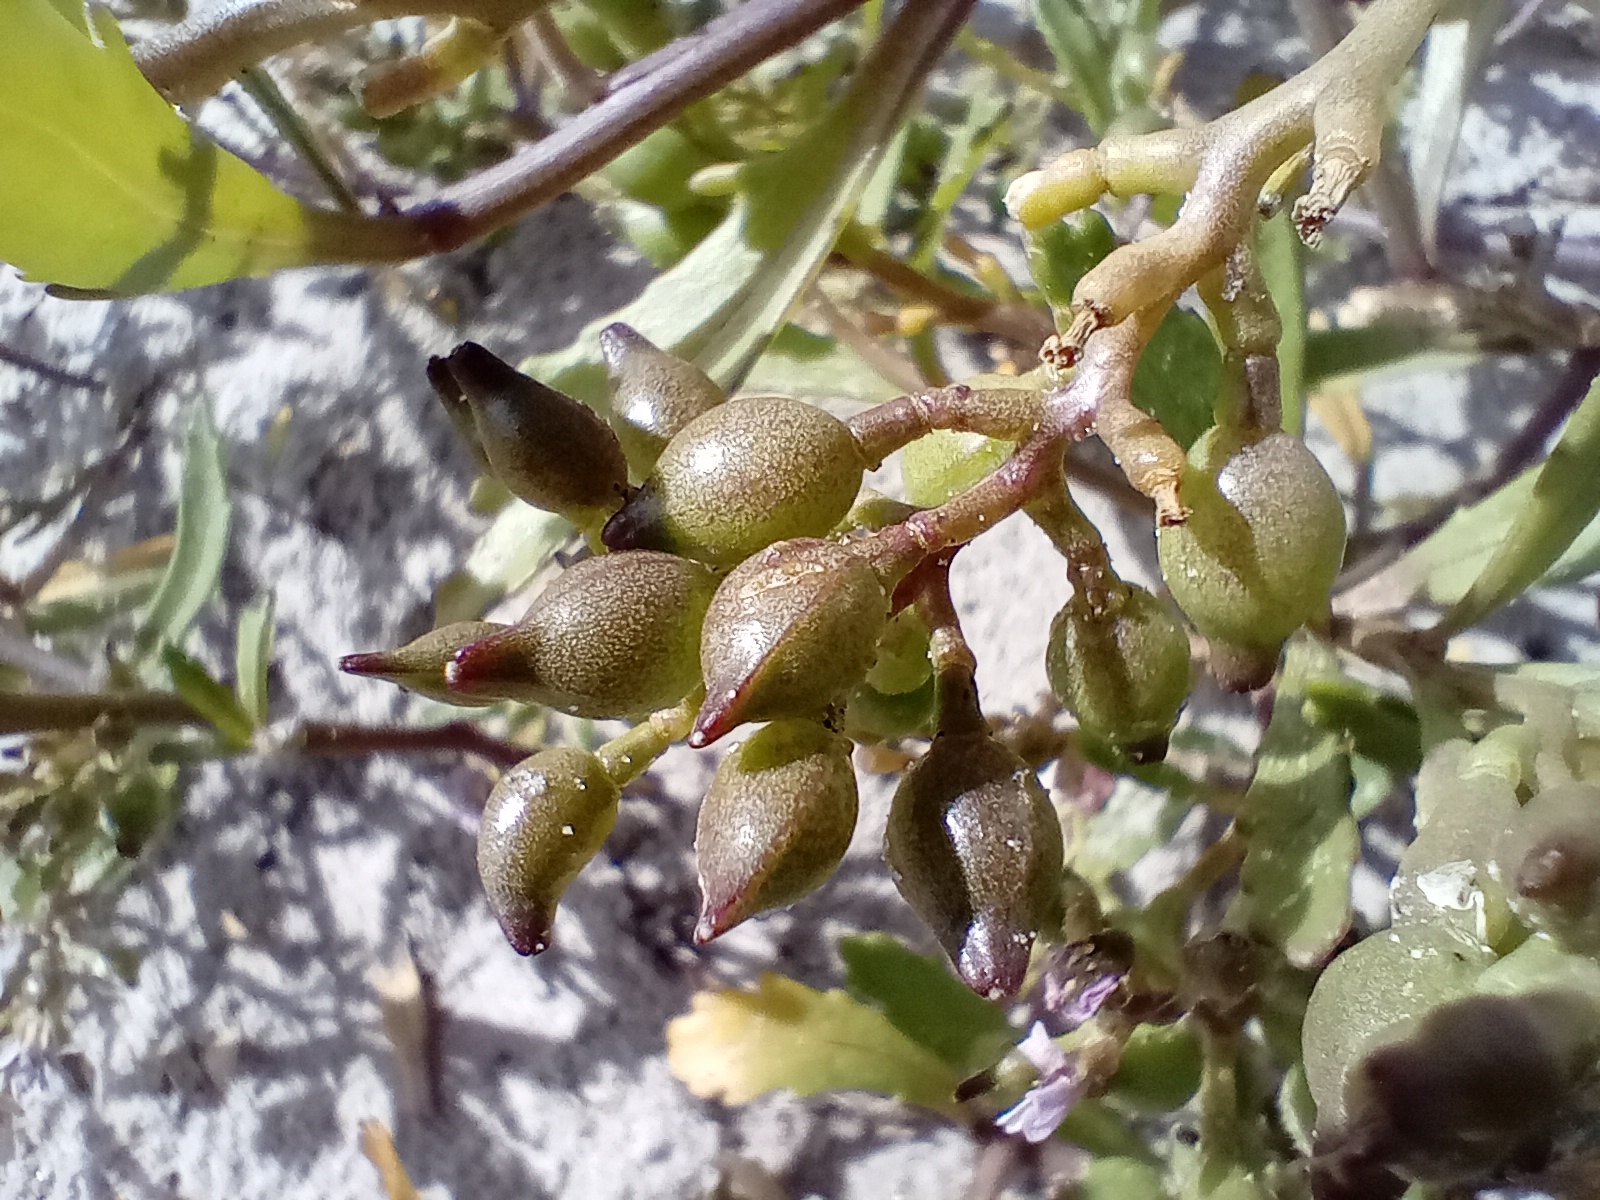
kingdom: Plantae
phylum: Tracheophyta
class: Magnoliopsida
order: Brassicales
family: Brassicaceae
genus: Cakile
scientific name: Cakile edentula
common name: American sea rocket
